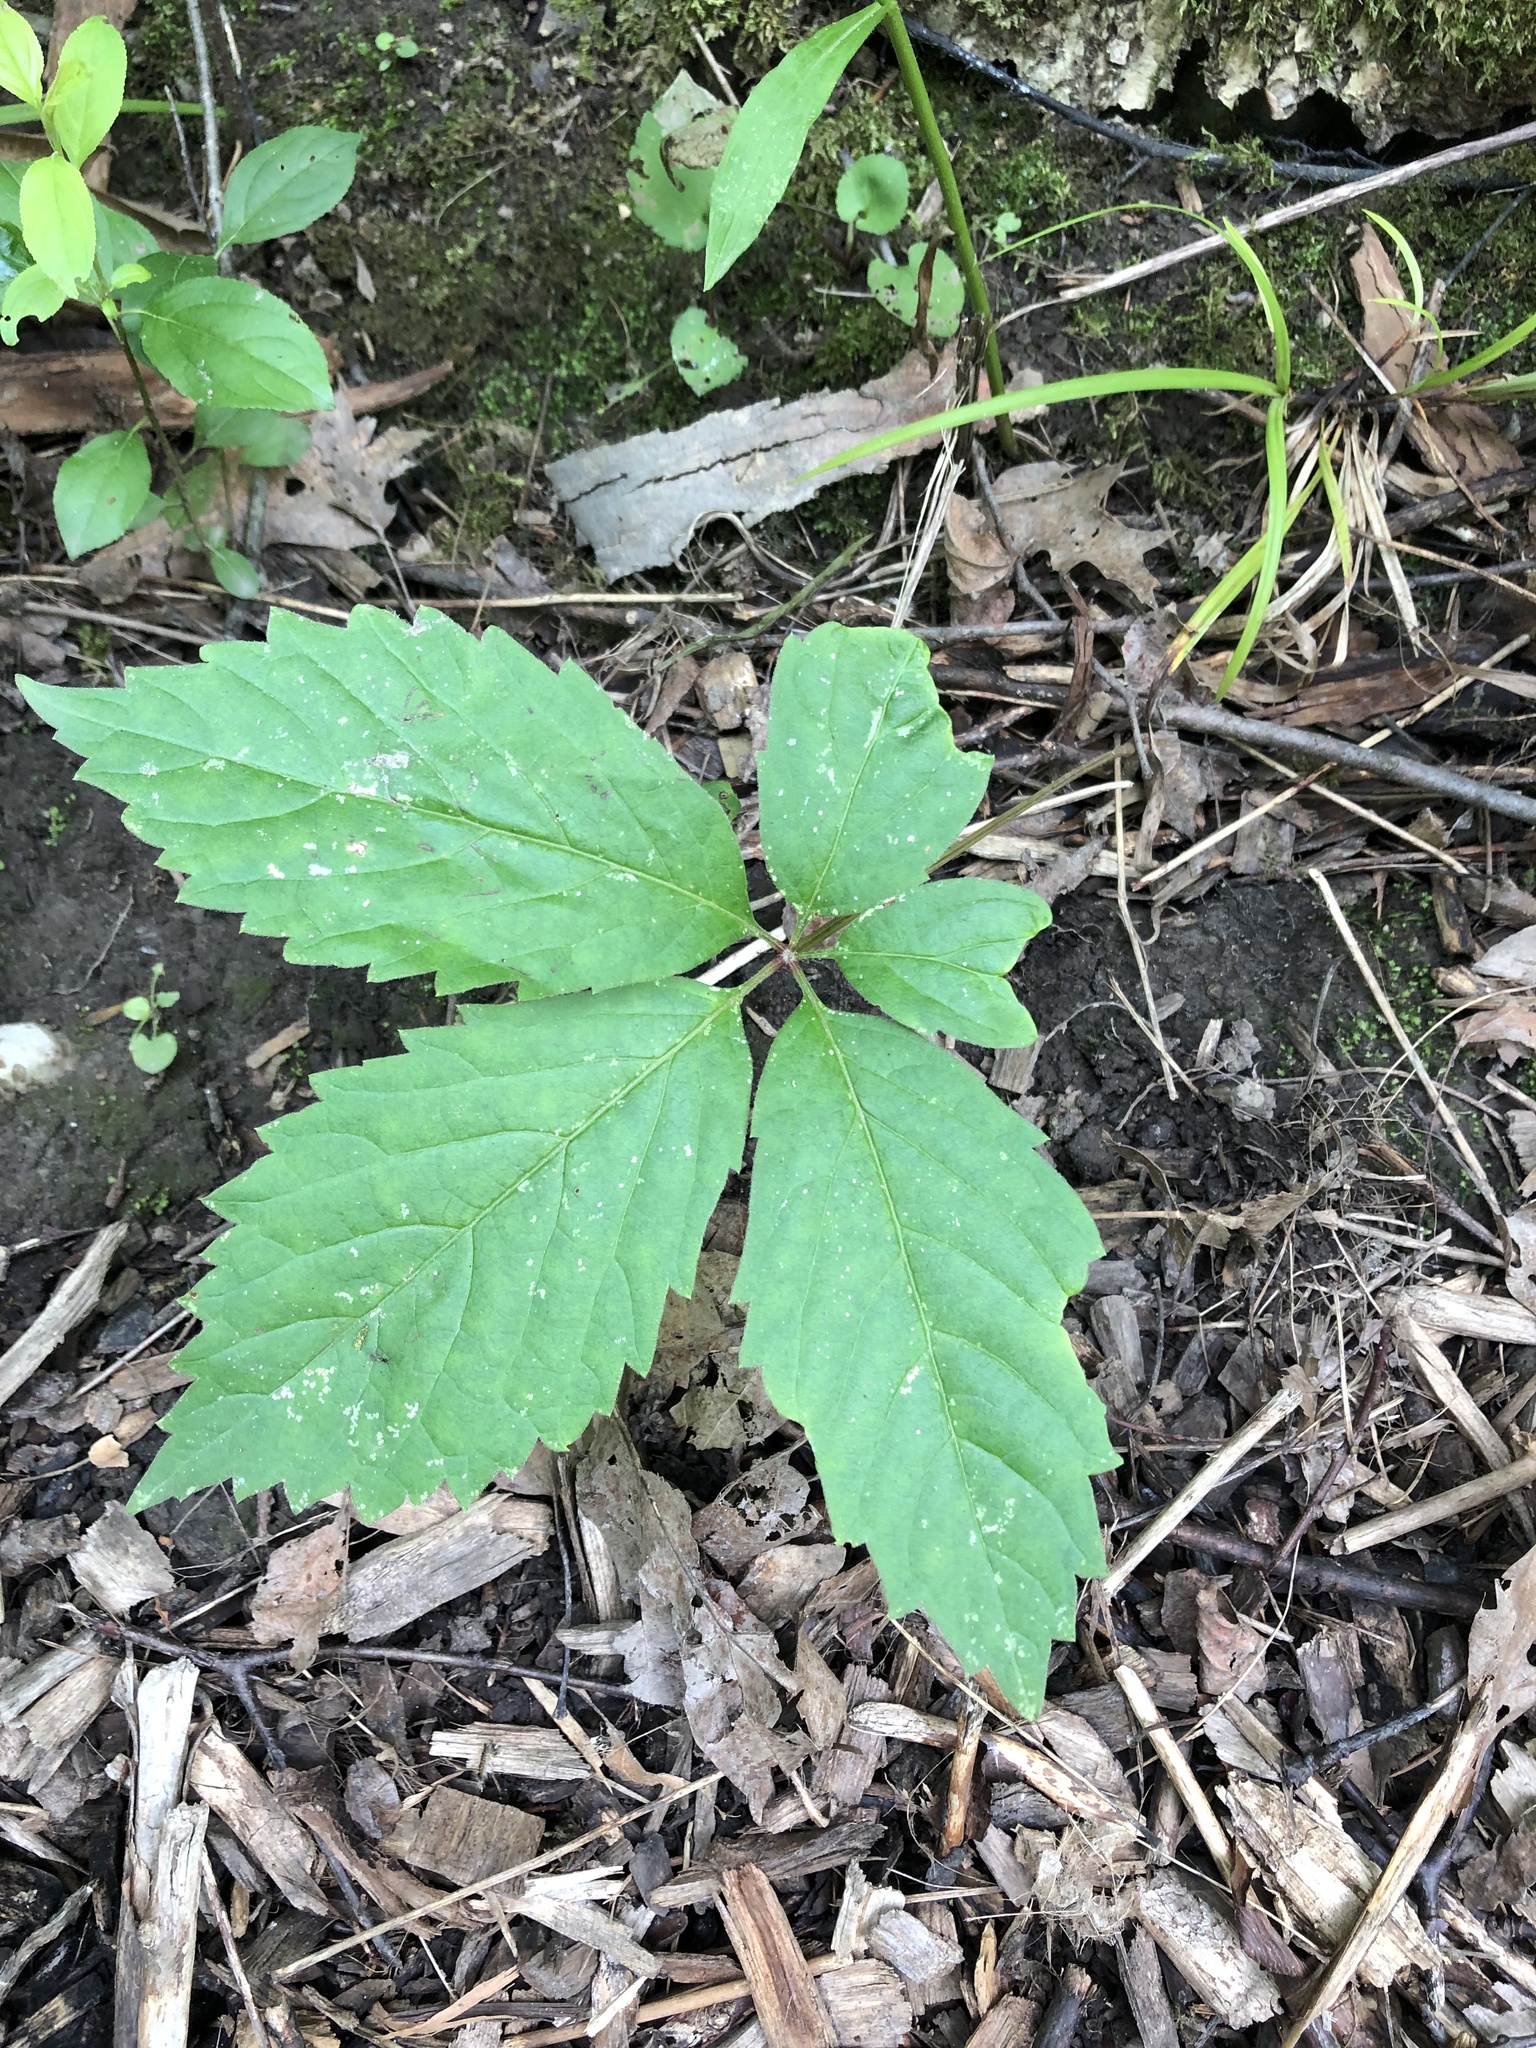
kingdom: Plantae
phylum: Tracheophyta
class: Magnoliopsida
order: Vitales
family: Vitaceae
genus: Parthenocissus
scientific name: Parthenocissus inserta
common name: False virginia-creeper
